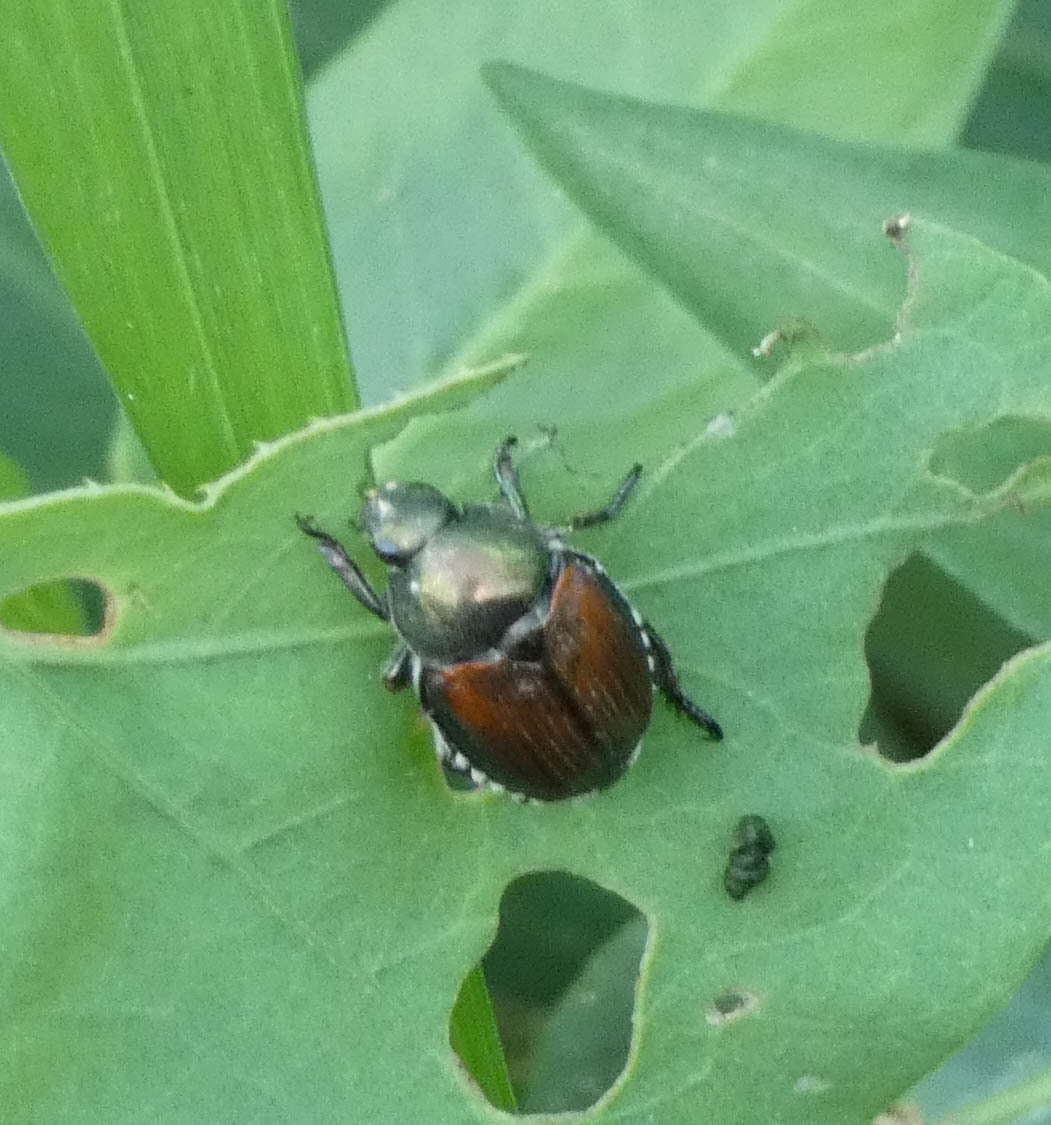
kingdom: Animalia
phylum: Arthropoda
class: Insecta
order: Coleoptera
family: Scarabaeidae
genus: Popillia
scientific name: Popillia japonica
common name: Japanese beetle
